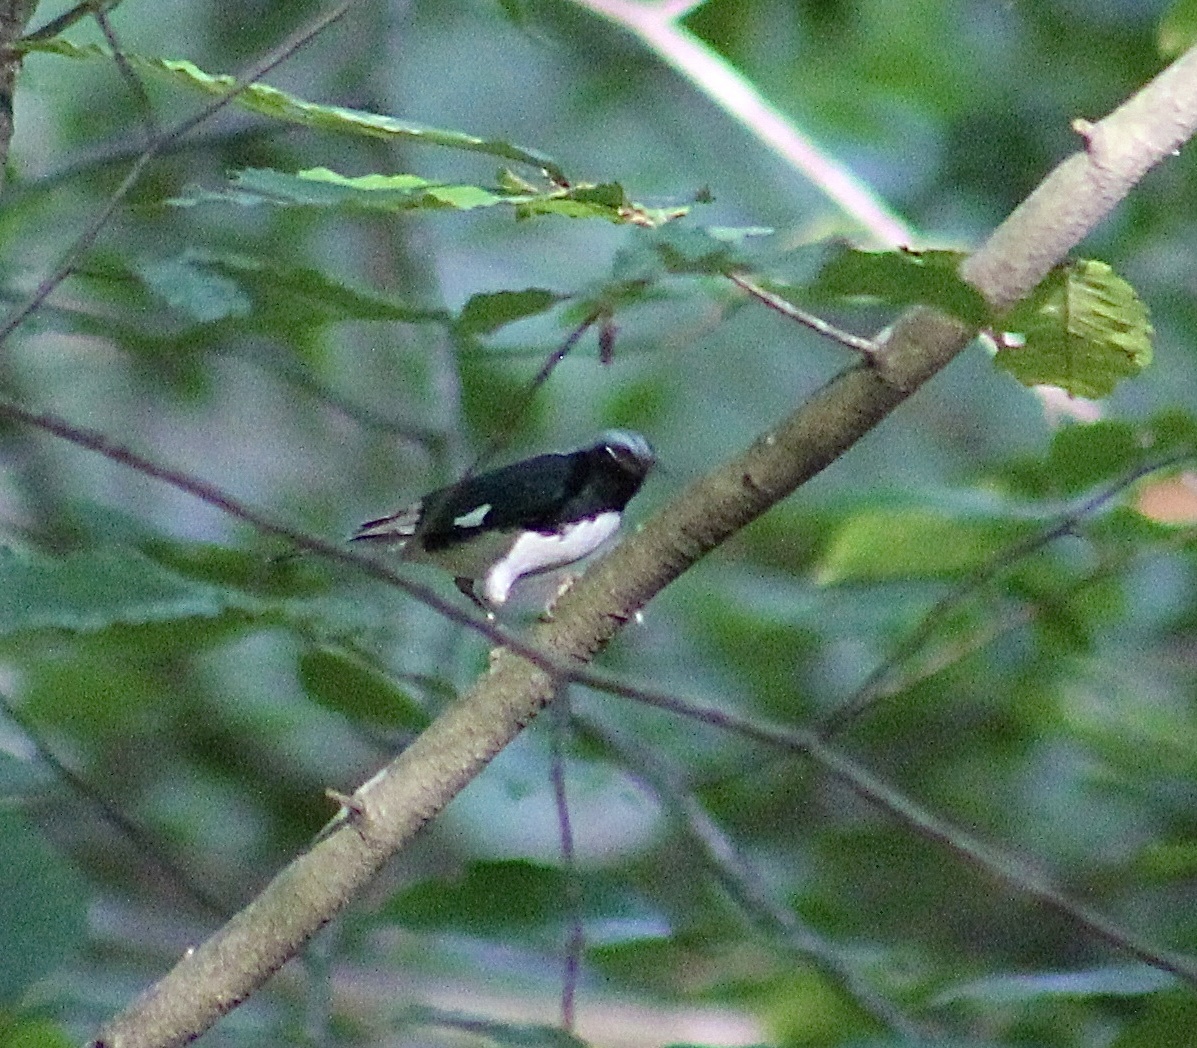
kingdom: Animalia
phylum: Chordata
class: Aves
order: Passeriformes
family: Parulidae
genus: Setophaga
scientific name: Setophaga caerulescens
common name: Black-throated blue warbler
